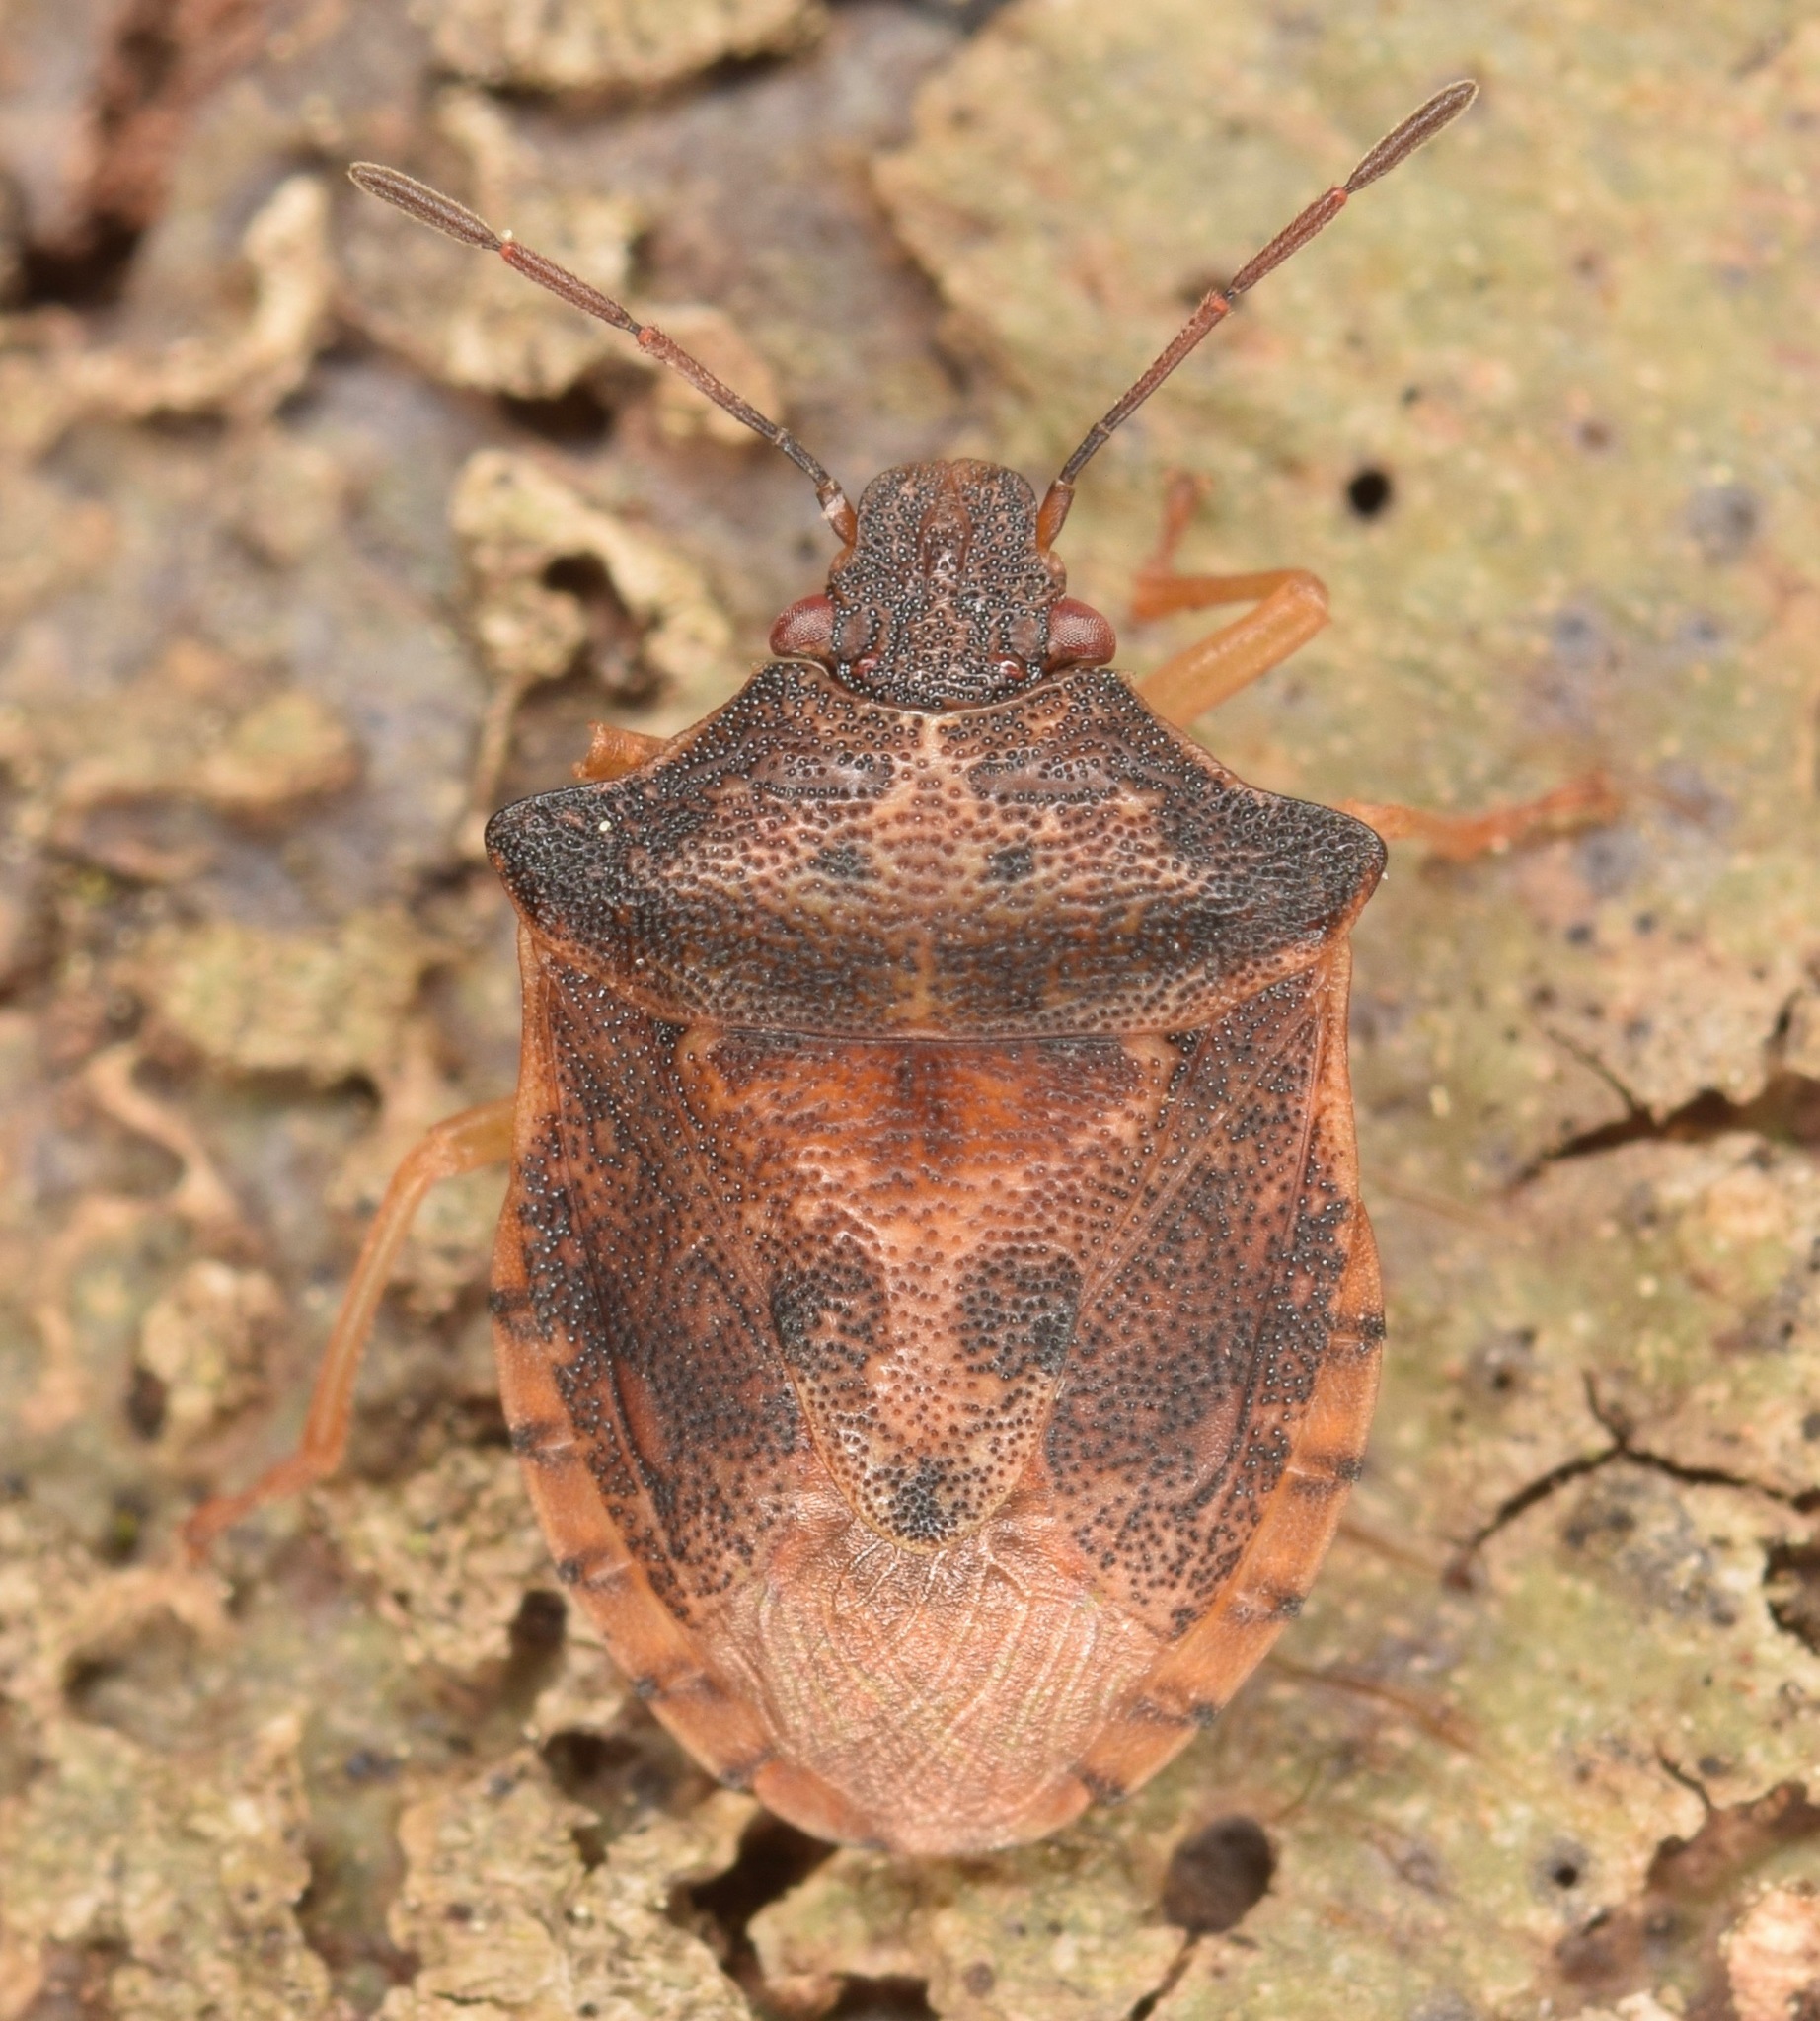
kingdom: Animalia
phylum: Arthropoda
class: Insecta
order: Hemiptera
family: Pentatomidae
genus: Dendrocoris
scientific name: Dendrocoris humeralis
